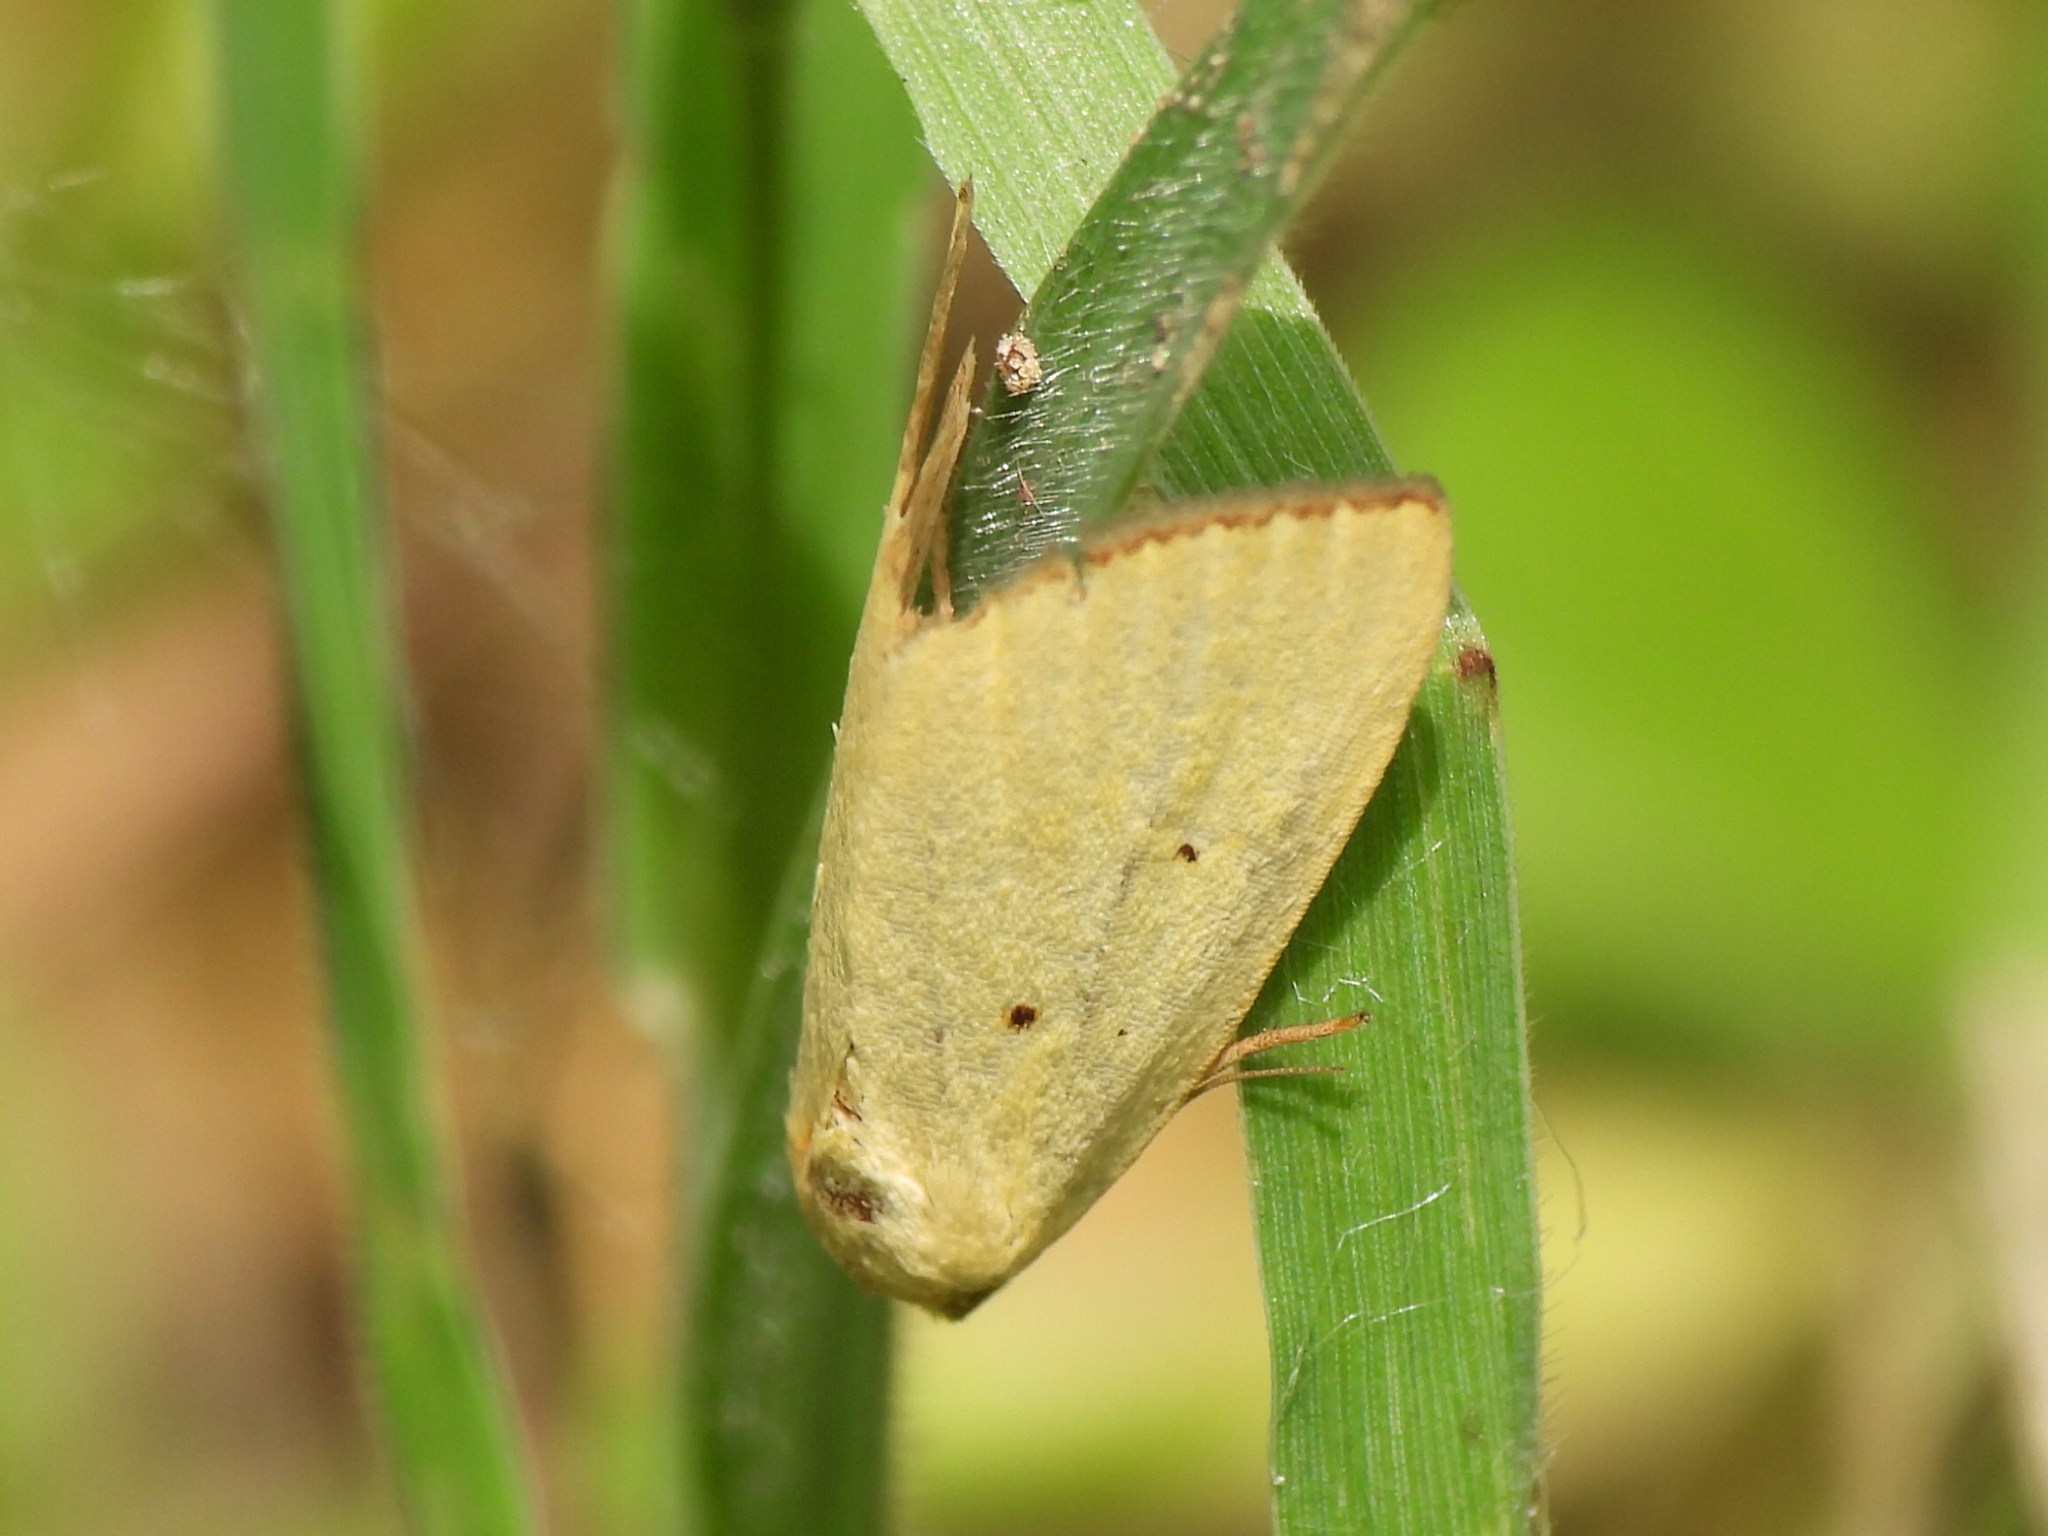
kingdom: Animalia
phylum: Arthropoda
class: Insecta
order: Lepidoptera
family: Noctuidae
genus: Marimatha
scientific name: Marimatha nigrofimbria
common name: Black-bordered lemon moth
